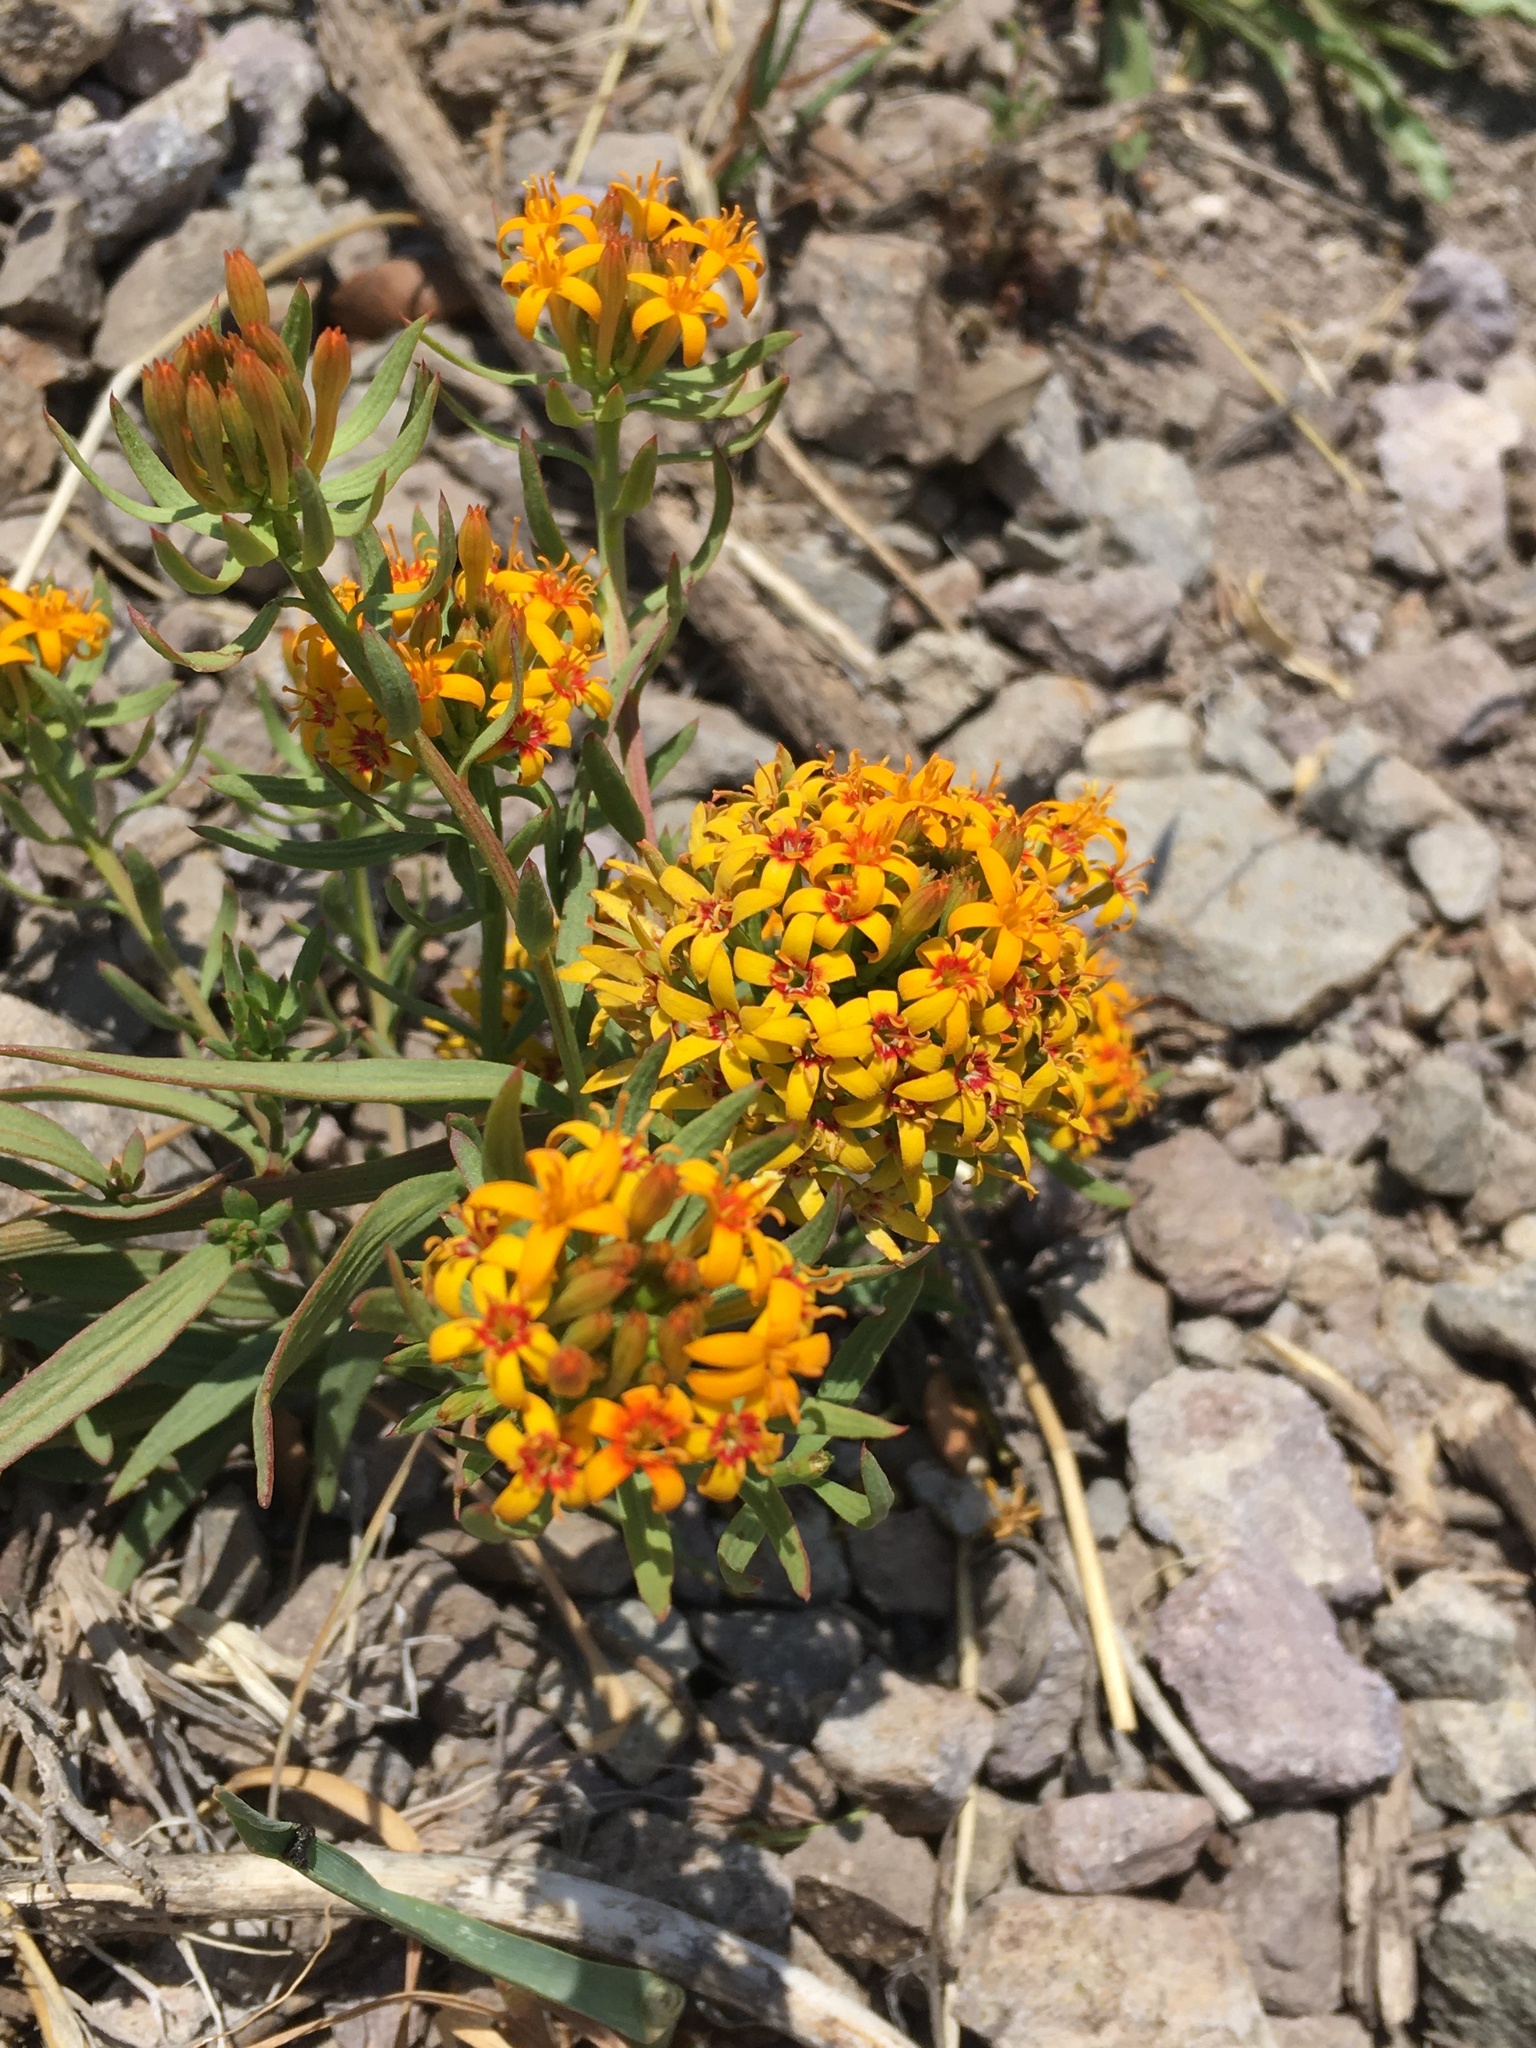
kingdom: Plantae
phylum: Tracheophyta
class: Magnoliopsida
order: Santalales
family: Schoepfiaceae
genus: Quinchamalium
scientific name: Quinchamalium chilense
